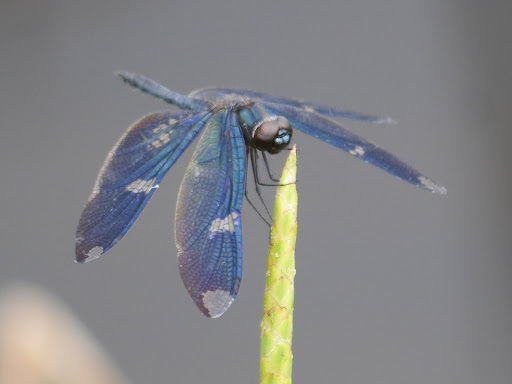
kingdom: Animalia
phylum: Arthropoda
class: Insecta
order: Odonata
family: Libellulidae
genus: Rhyothemis
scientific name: Rhyothemis fenestrina
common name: Skylight flutterer
